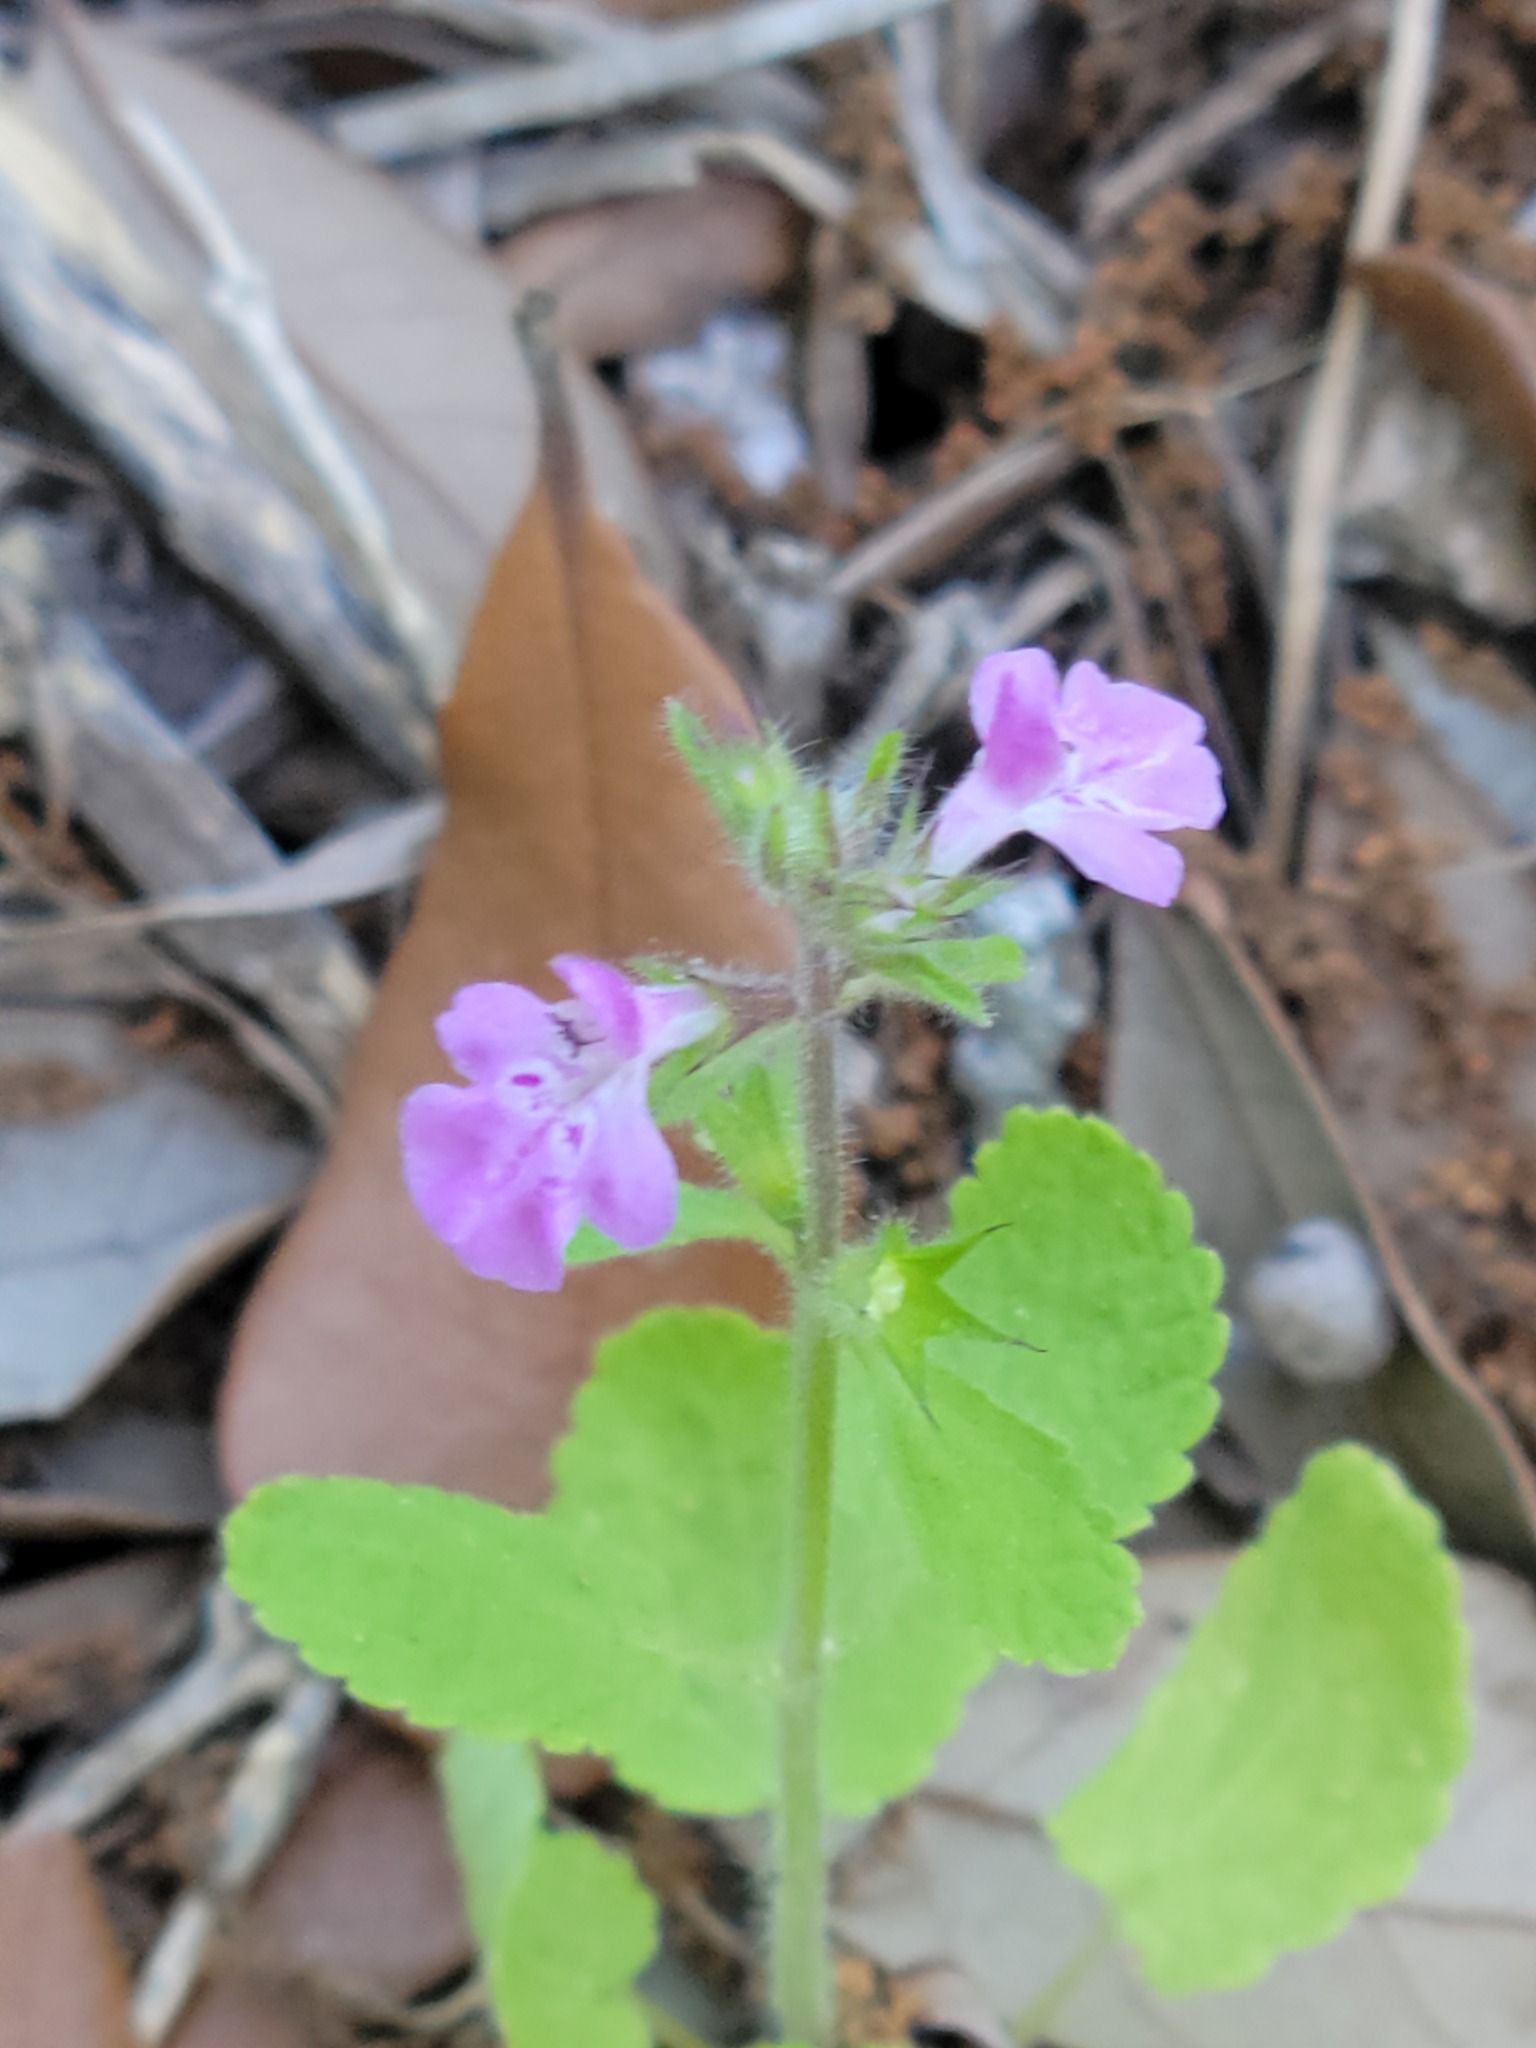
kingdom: Plantae
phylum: Tracheophyta
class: Magnoliopsida
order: Lamiales
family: Lamiaceae
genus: Stachys
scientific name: Stachys drummondii
